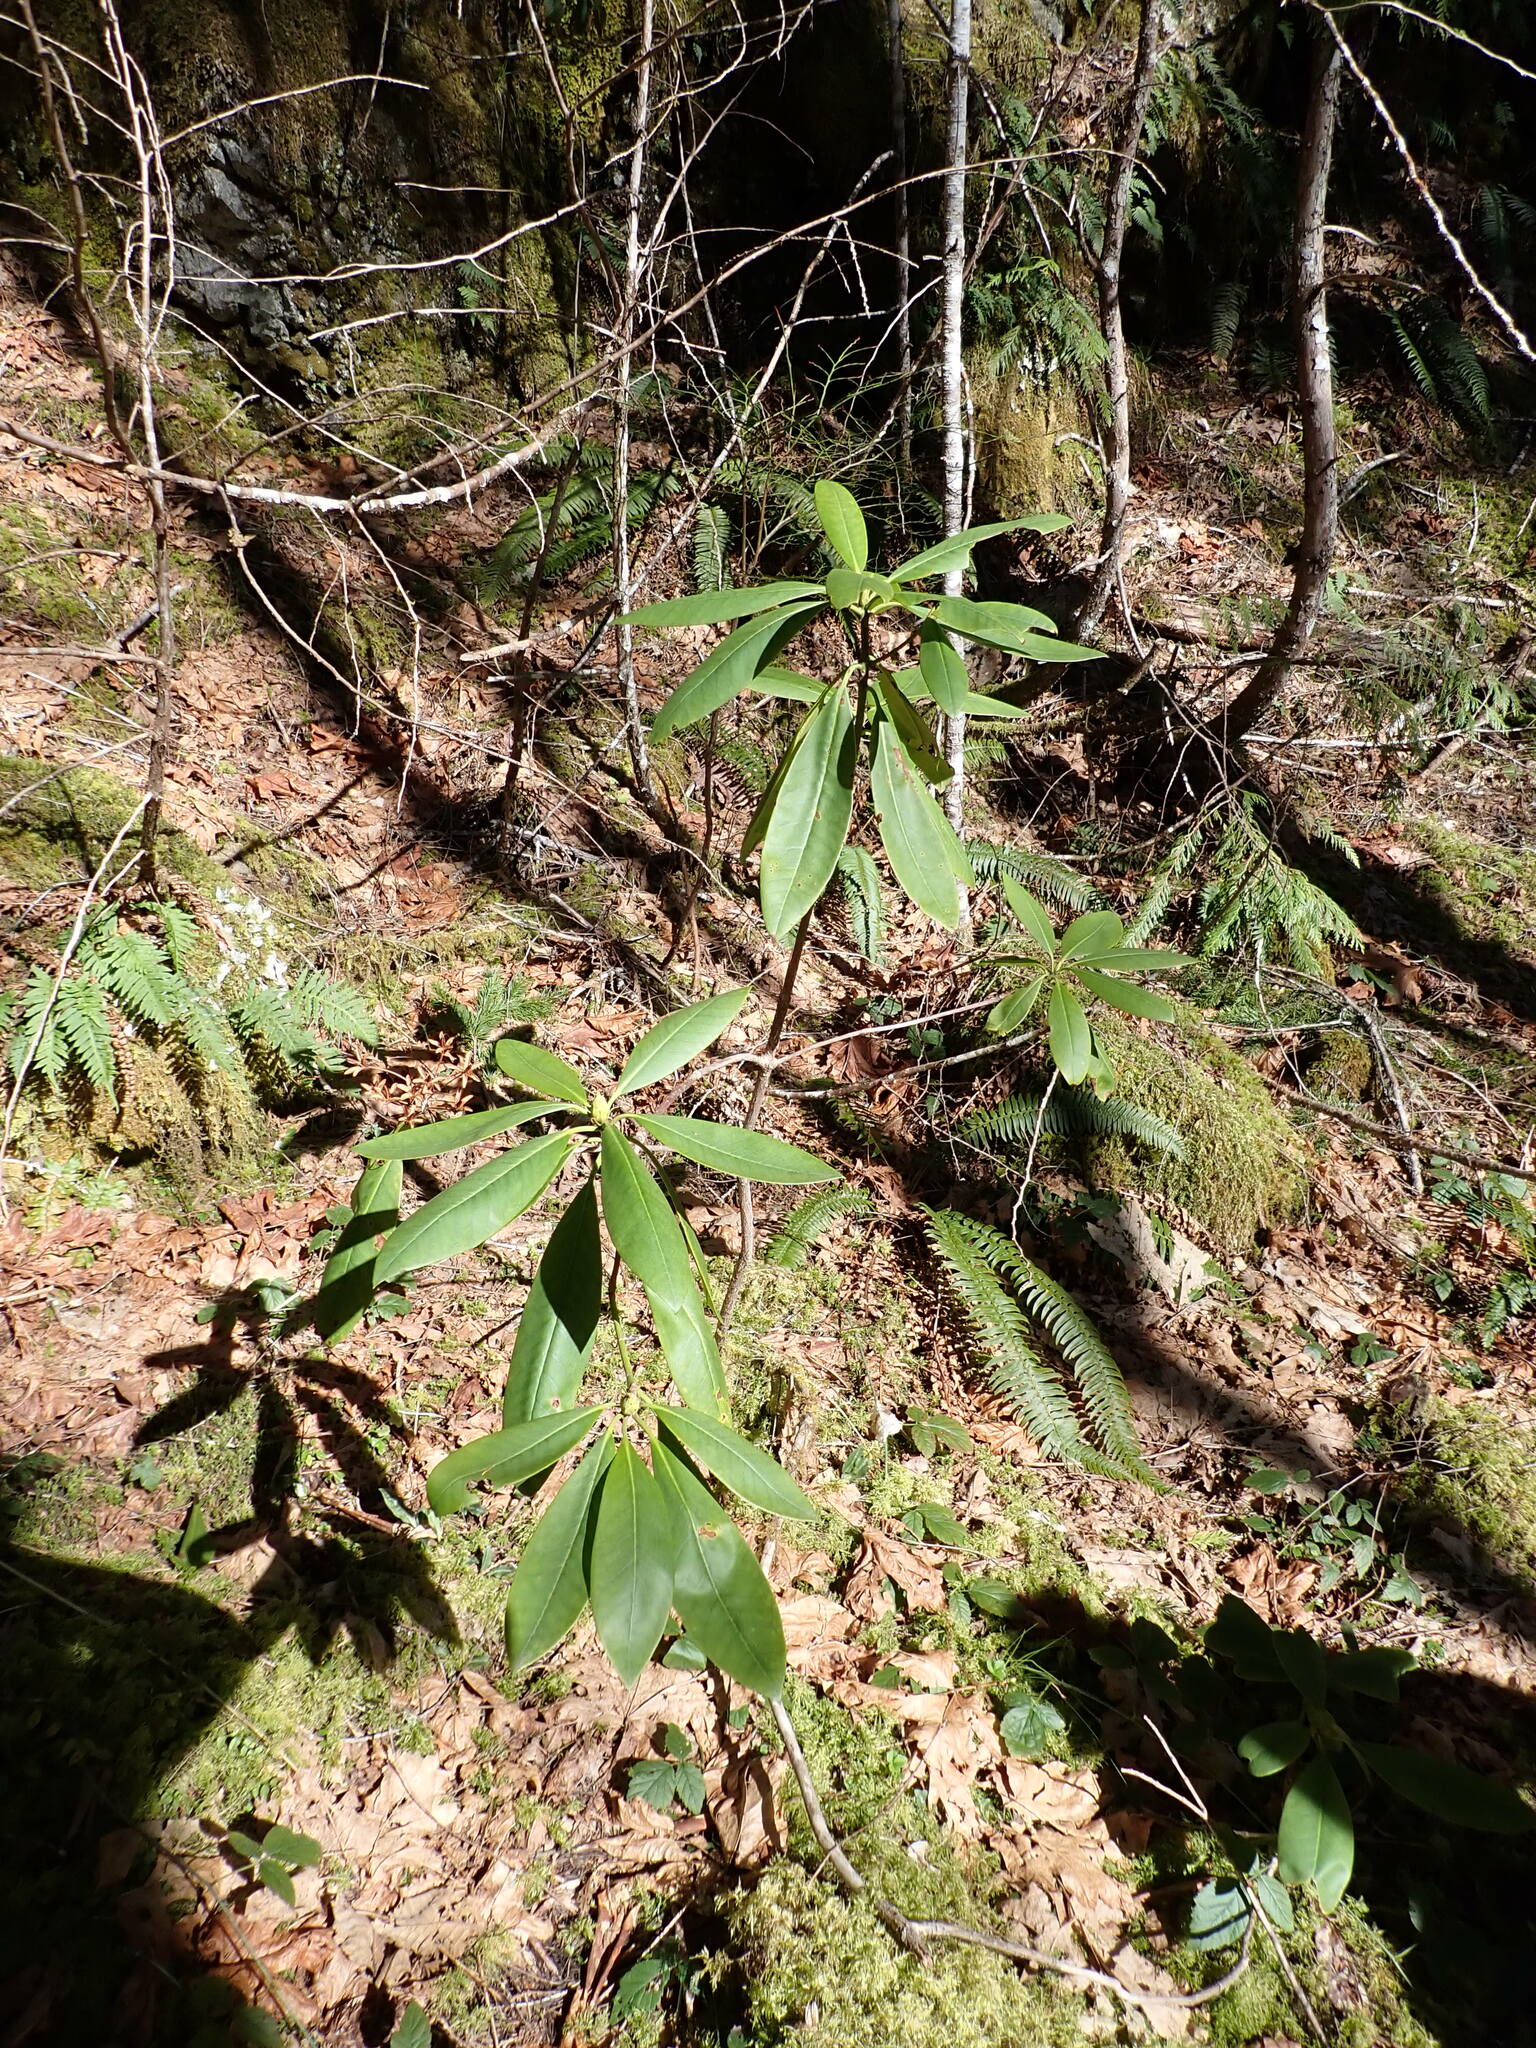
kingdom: Plantae
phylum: Tracheophyta
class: Magnoliopsida
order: Ericales
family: Ericaceae
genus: Rhododendron
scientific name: Rhododendron macrophyllum
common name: California rose bay
